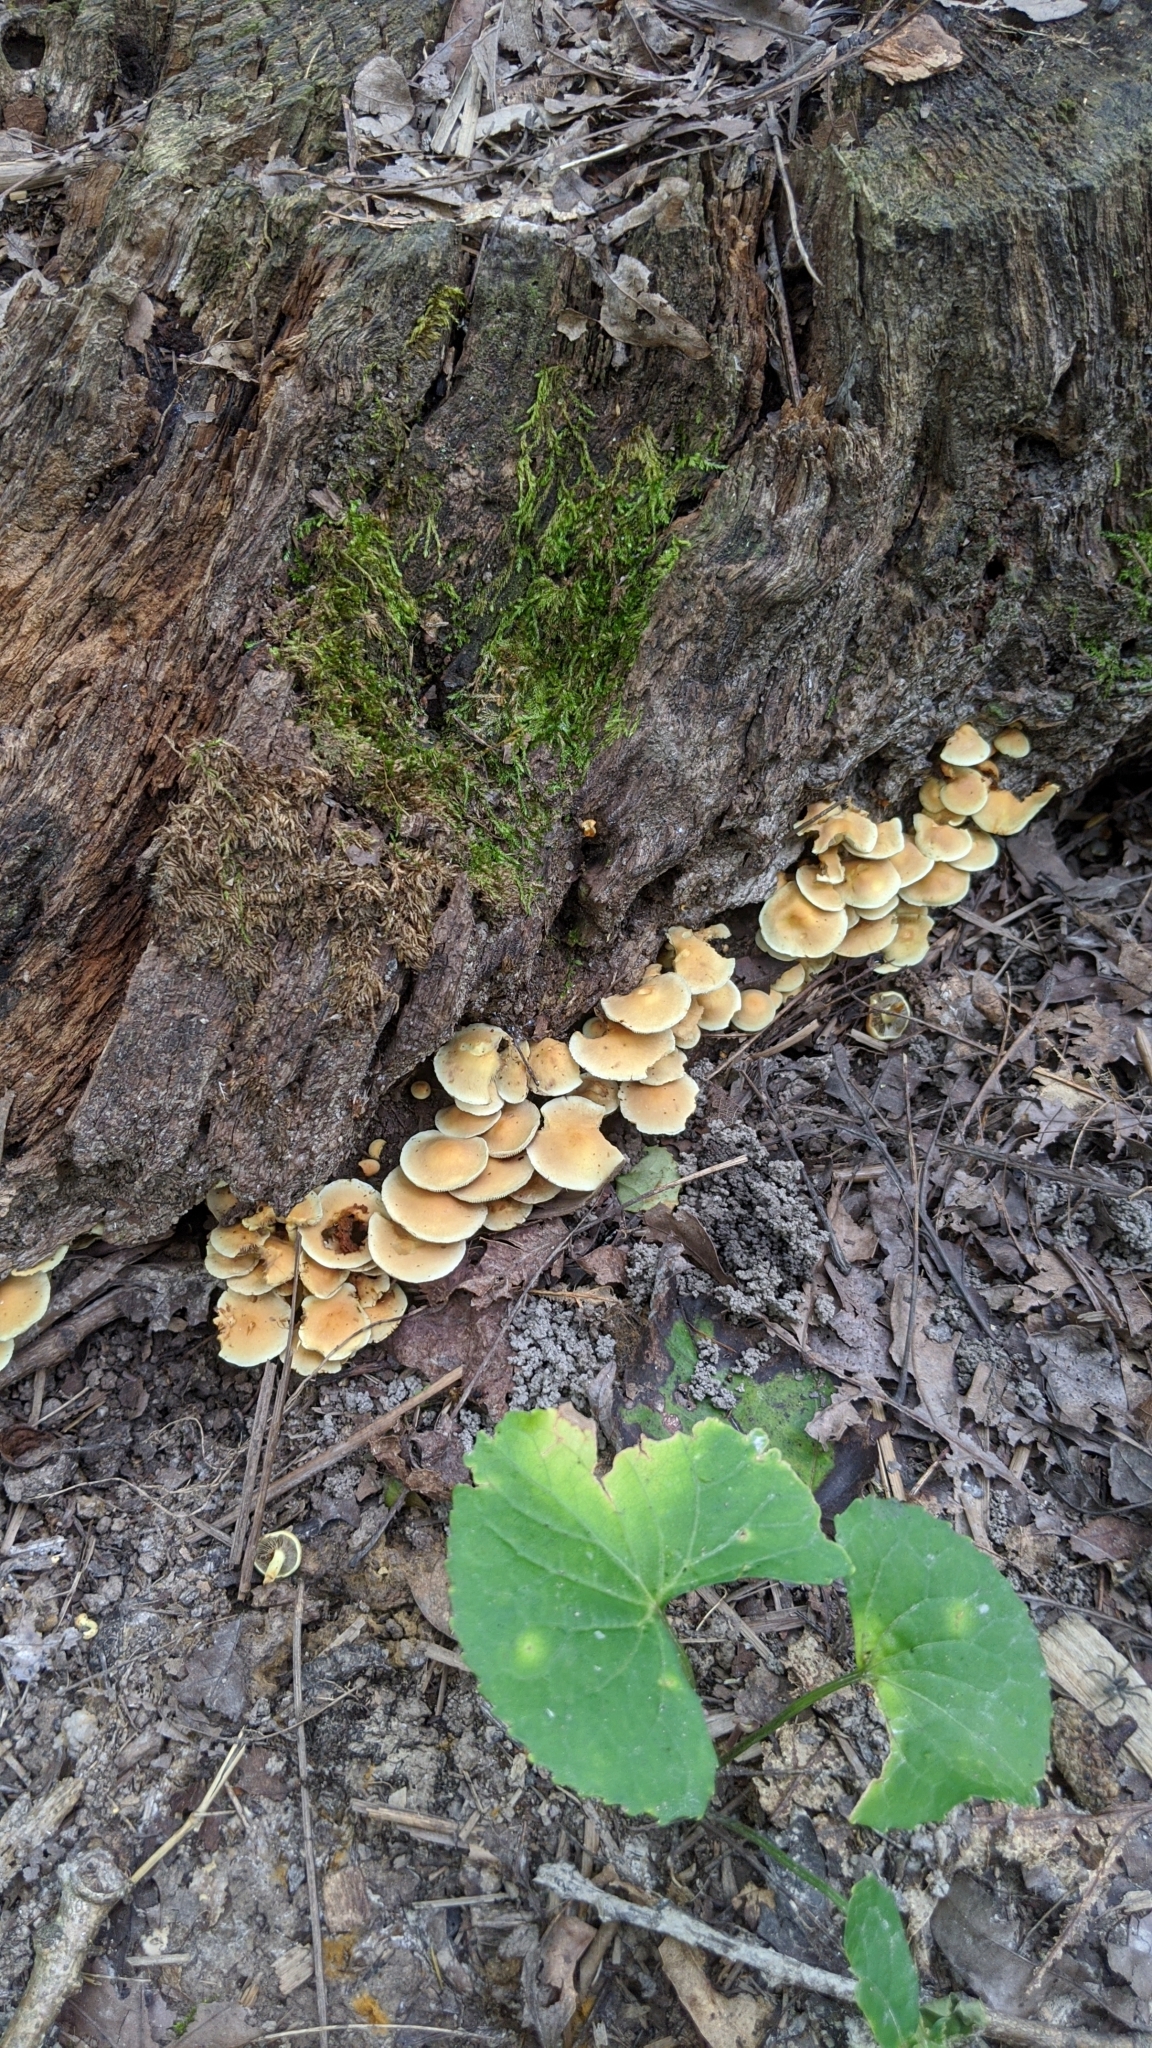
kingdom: Fungi
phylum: Basidiomycota
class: Agaricomycetes
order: Agaricales
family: Strophariaceae
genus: Hypholoma
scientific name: Hypholoma fasciculare
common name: Sulphur tuft
